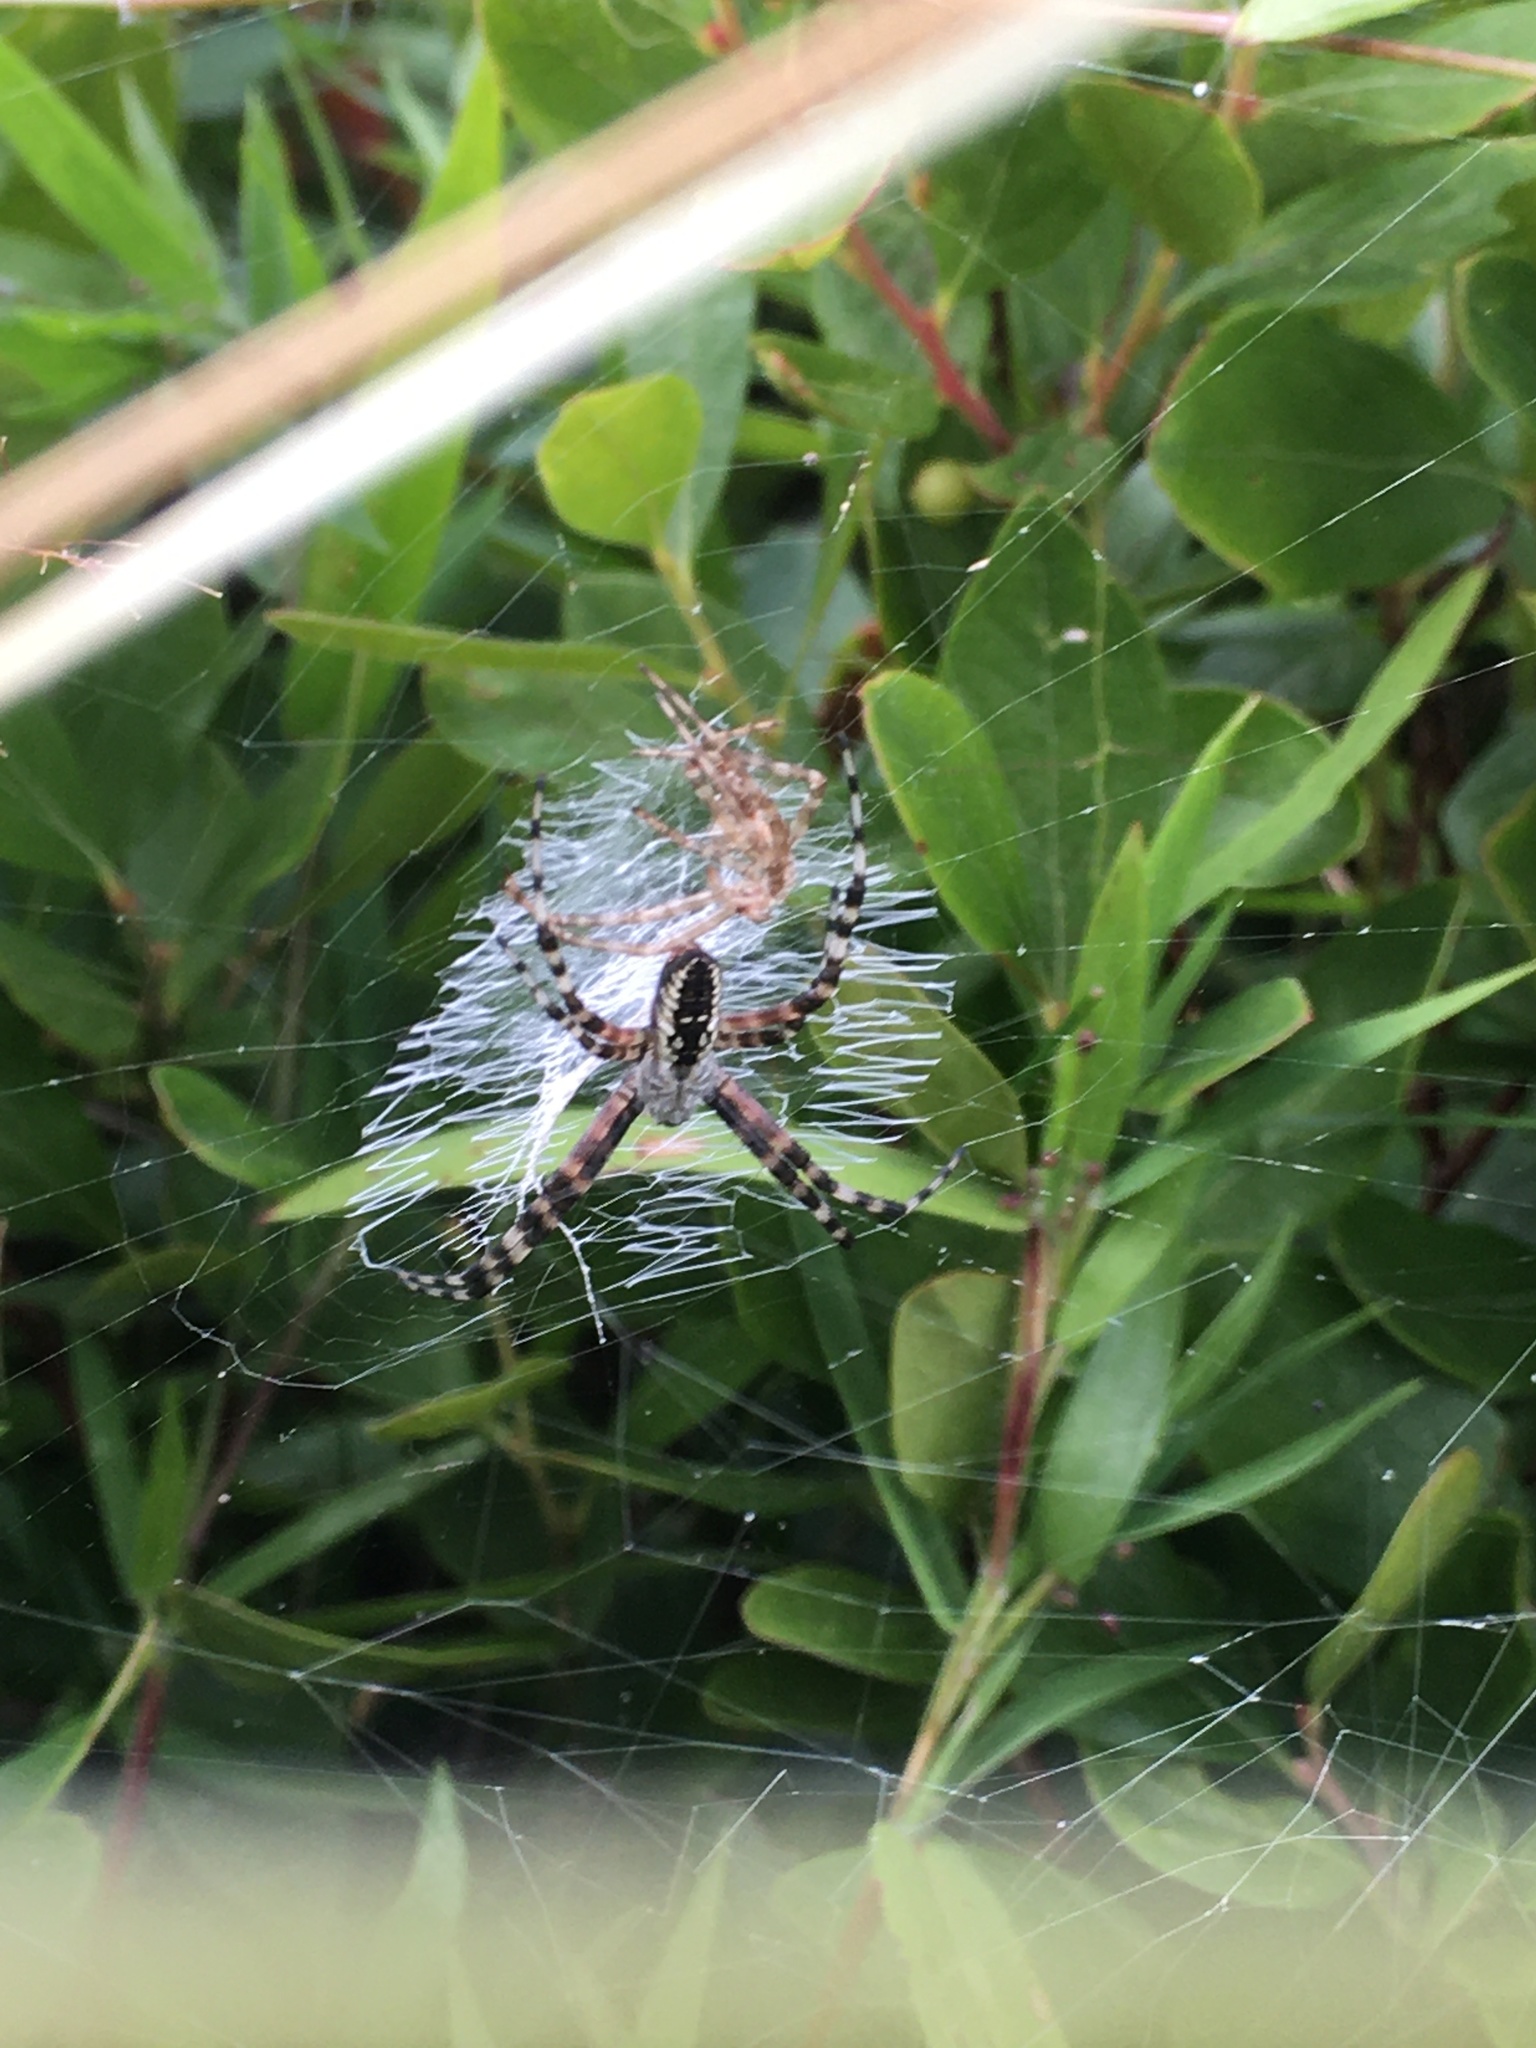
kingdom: Animalia
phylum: Arthropoda
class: Arachnida
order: Araneae
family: Araneidae
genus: Argiope
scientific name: Argiope aurantia
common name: Orb weavers
